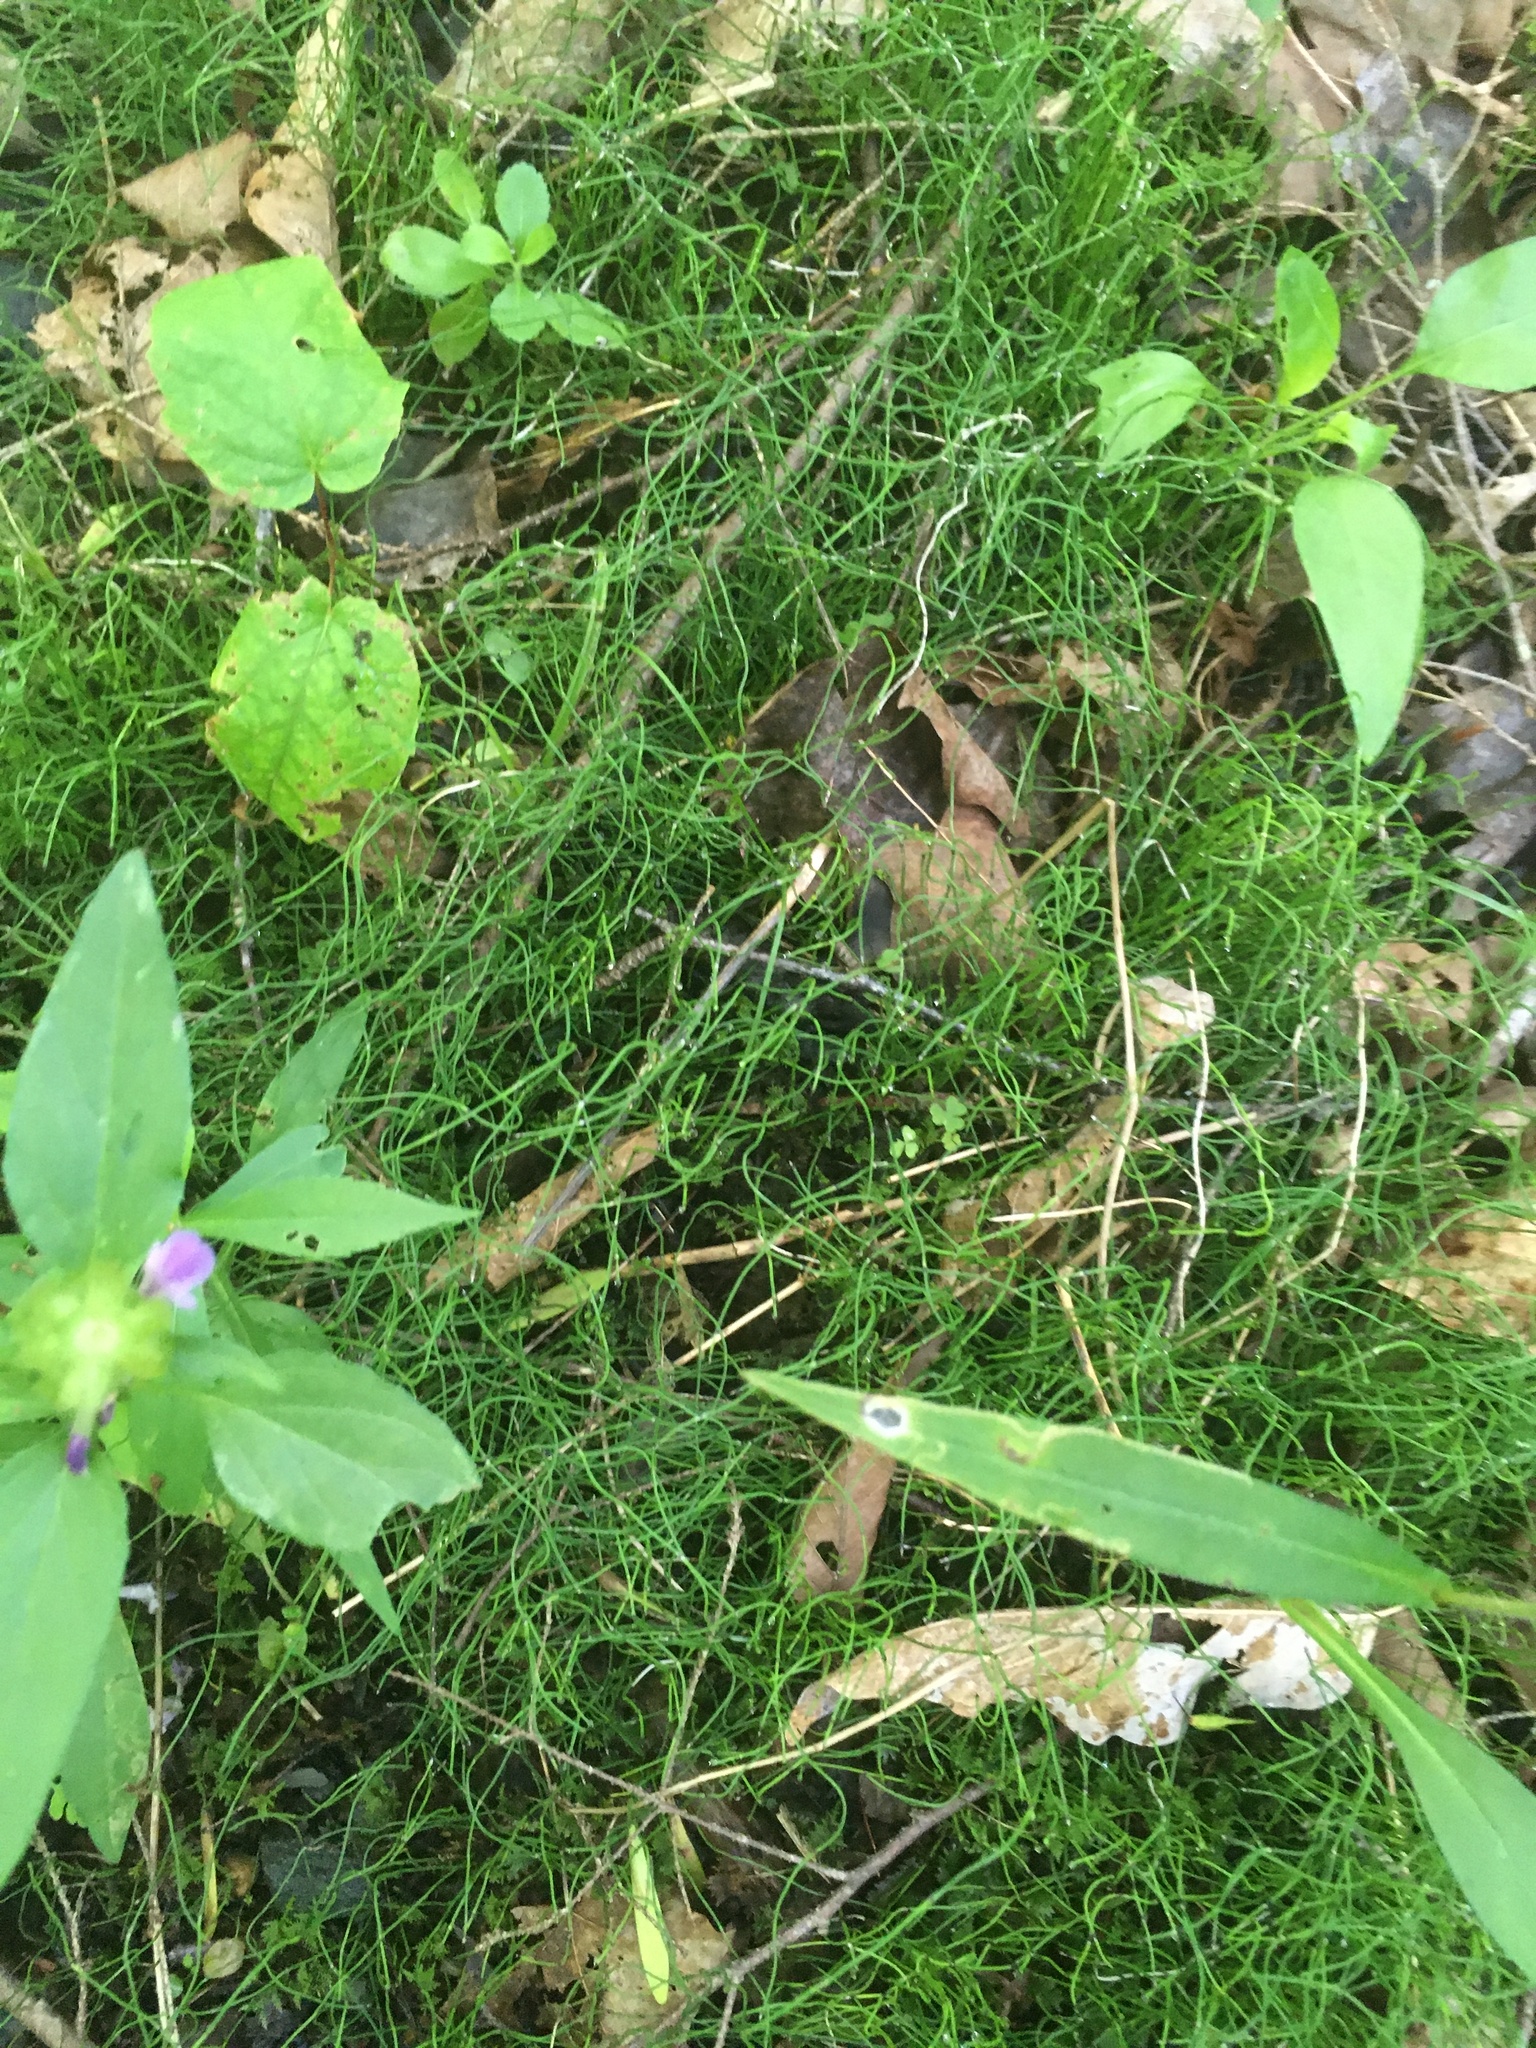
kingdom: Plantae
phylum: Tracheophyta
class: Polypodiopsida
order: Equisetales
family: Equisetaceae
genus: Equisetum
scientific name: Equisetum scirpoides
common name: Delicate horsetail
